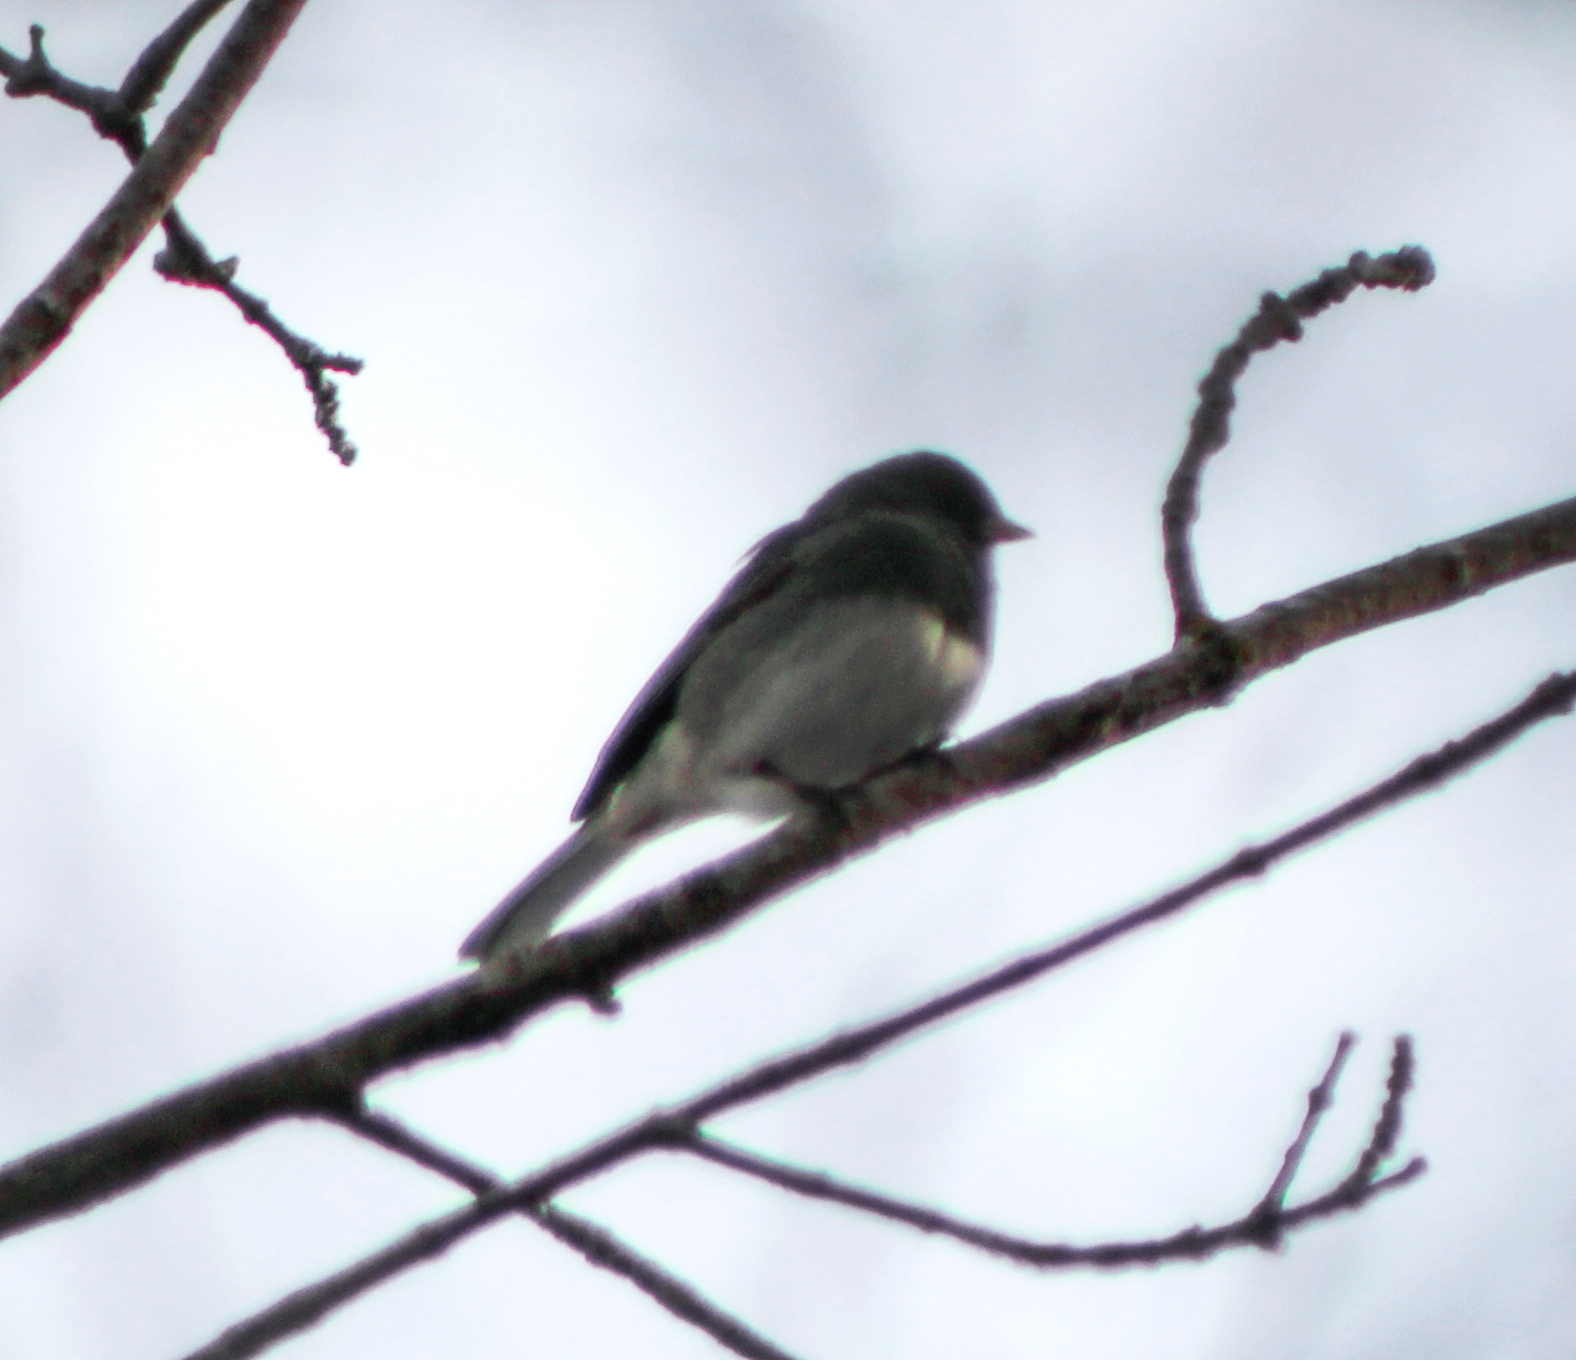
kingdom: Animalia
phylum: Chordata
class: Aves
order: Passeriformes
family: Passerellidae
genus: Junco
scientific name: Junco hyemalis
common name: Dark-eyed junco
